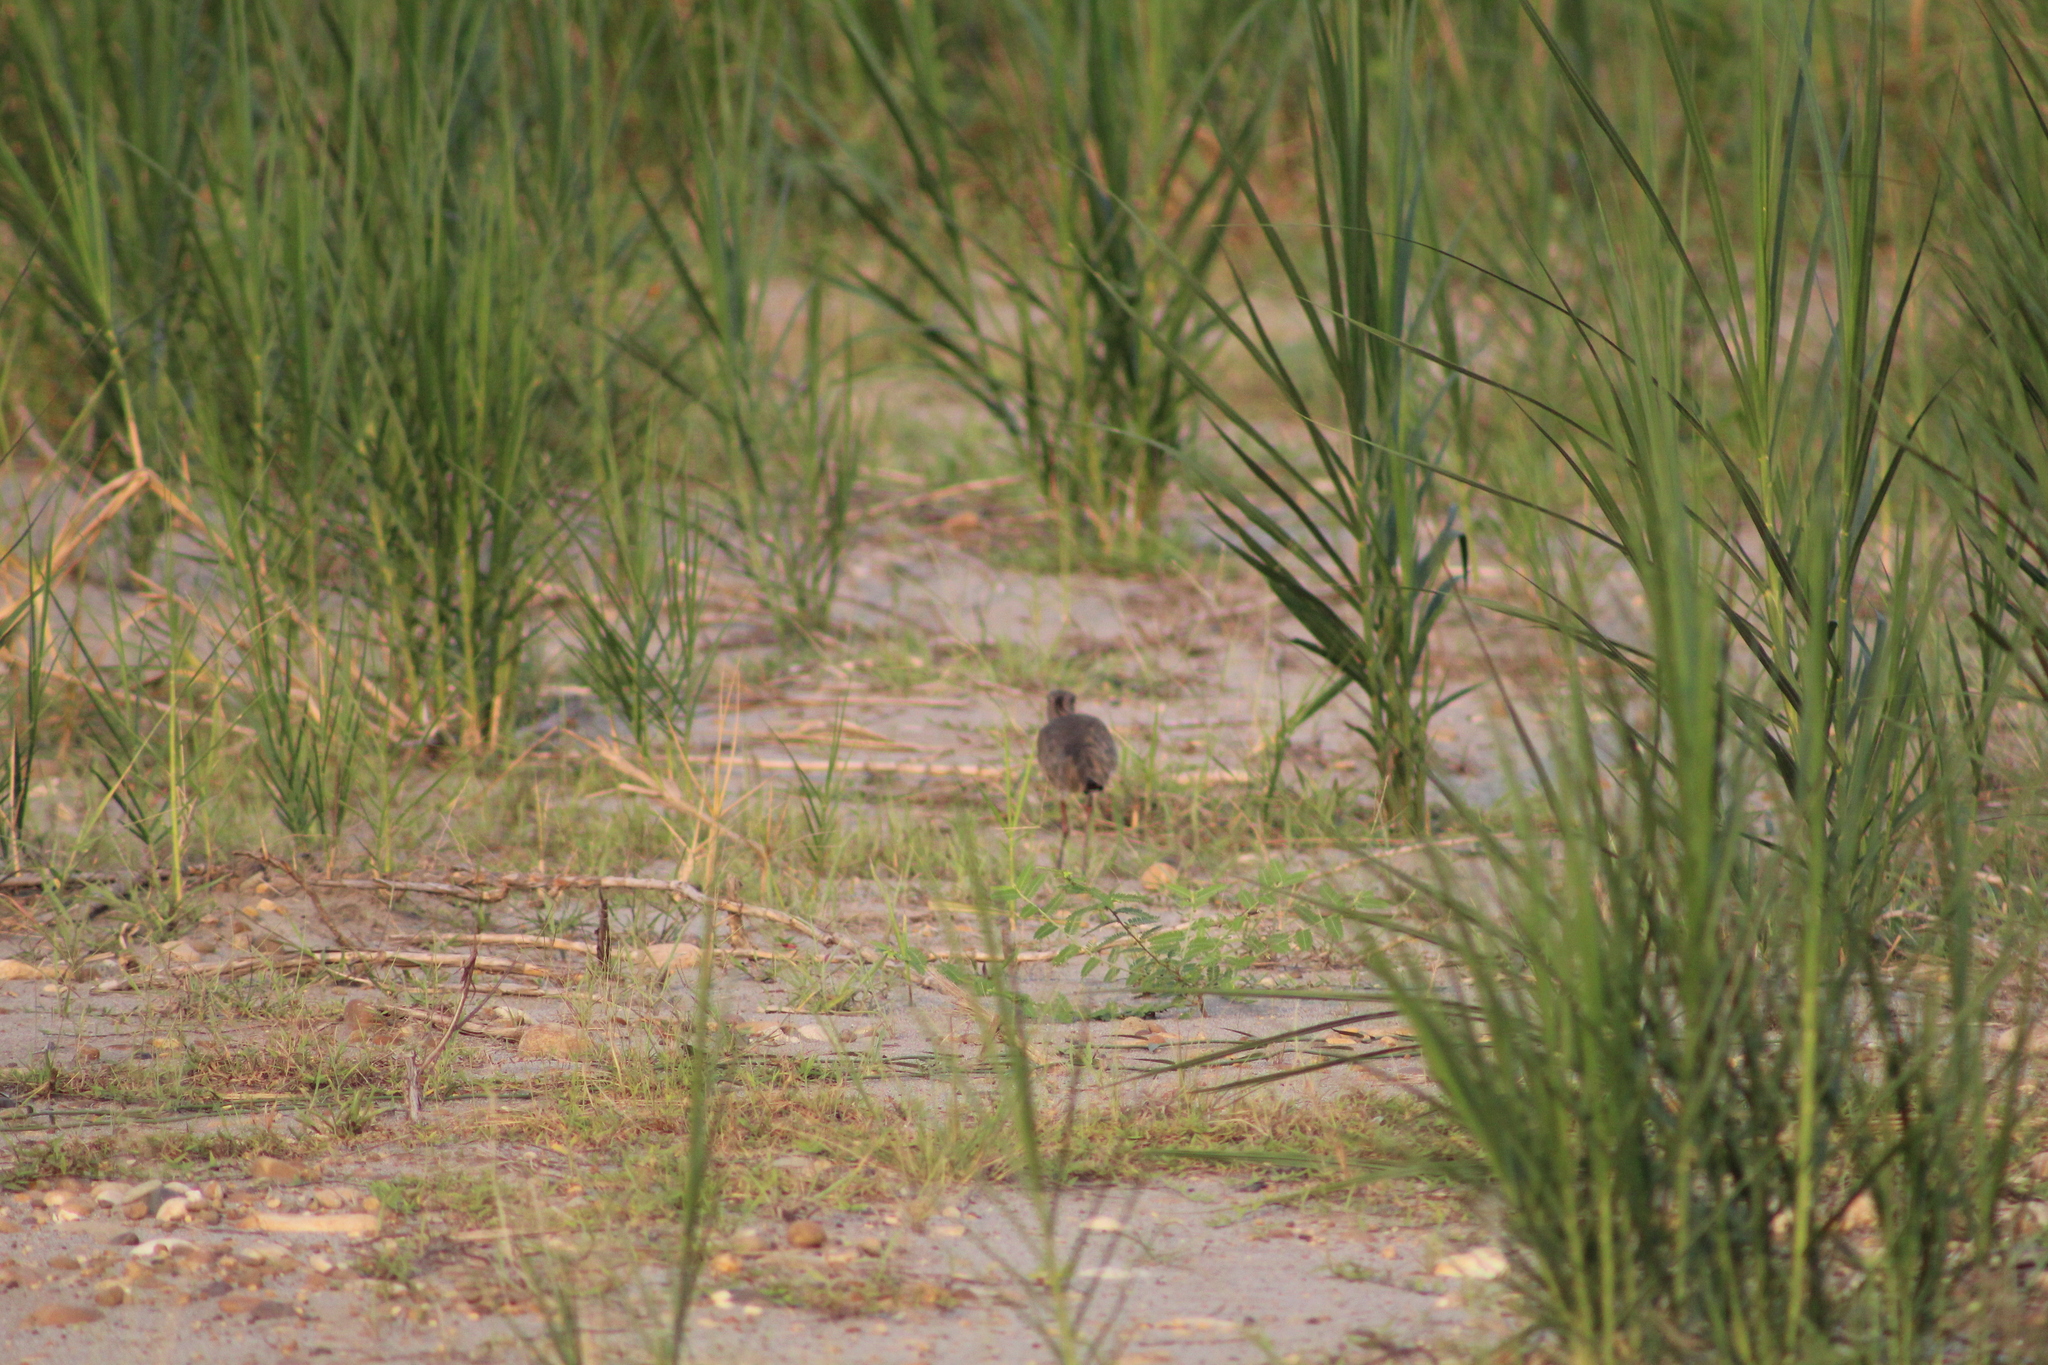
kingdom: Animalia
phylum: Chordata
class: Aves
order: Charadriiformes
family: Charadriidae
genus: Vanellus
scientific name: Vanellus chilensis
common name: Southern lapwing
